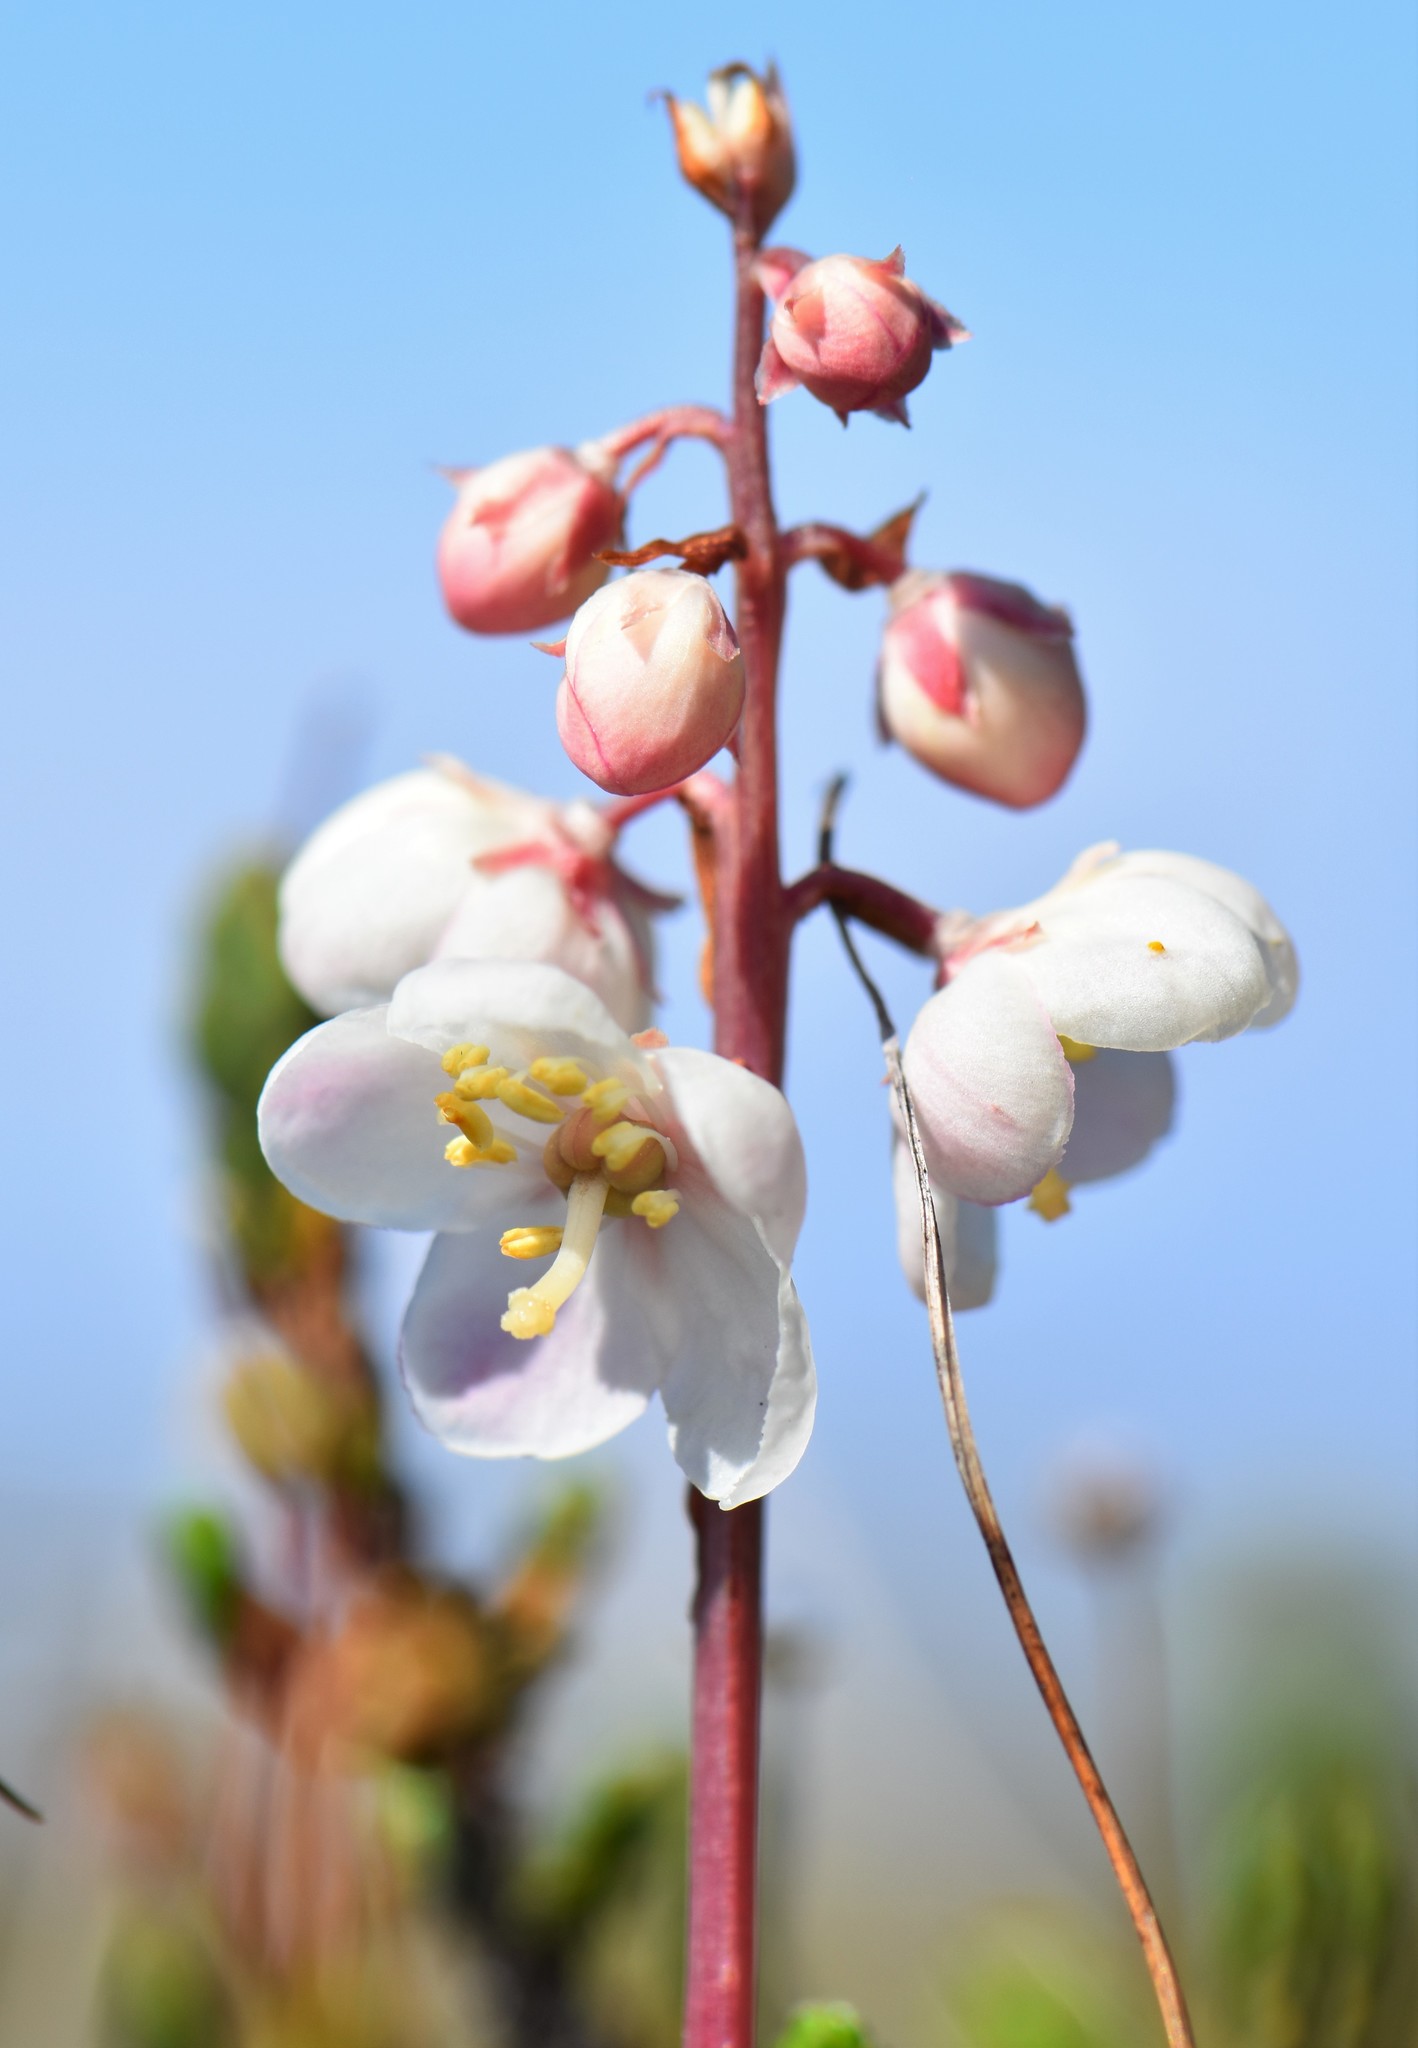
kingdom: Plantae
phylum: Tracheophyta
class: Magnoliopsida
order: Ericales
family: Ericaceae
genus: Pyrola
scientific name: Pyrola grandiflora
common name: Arctic pyrola
